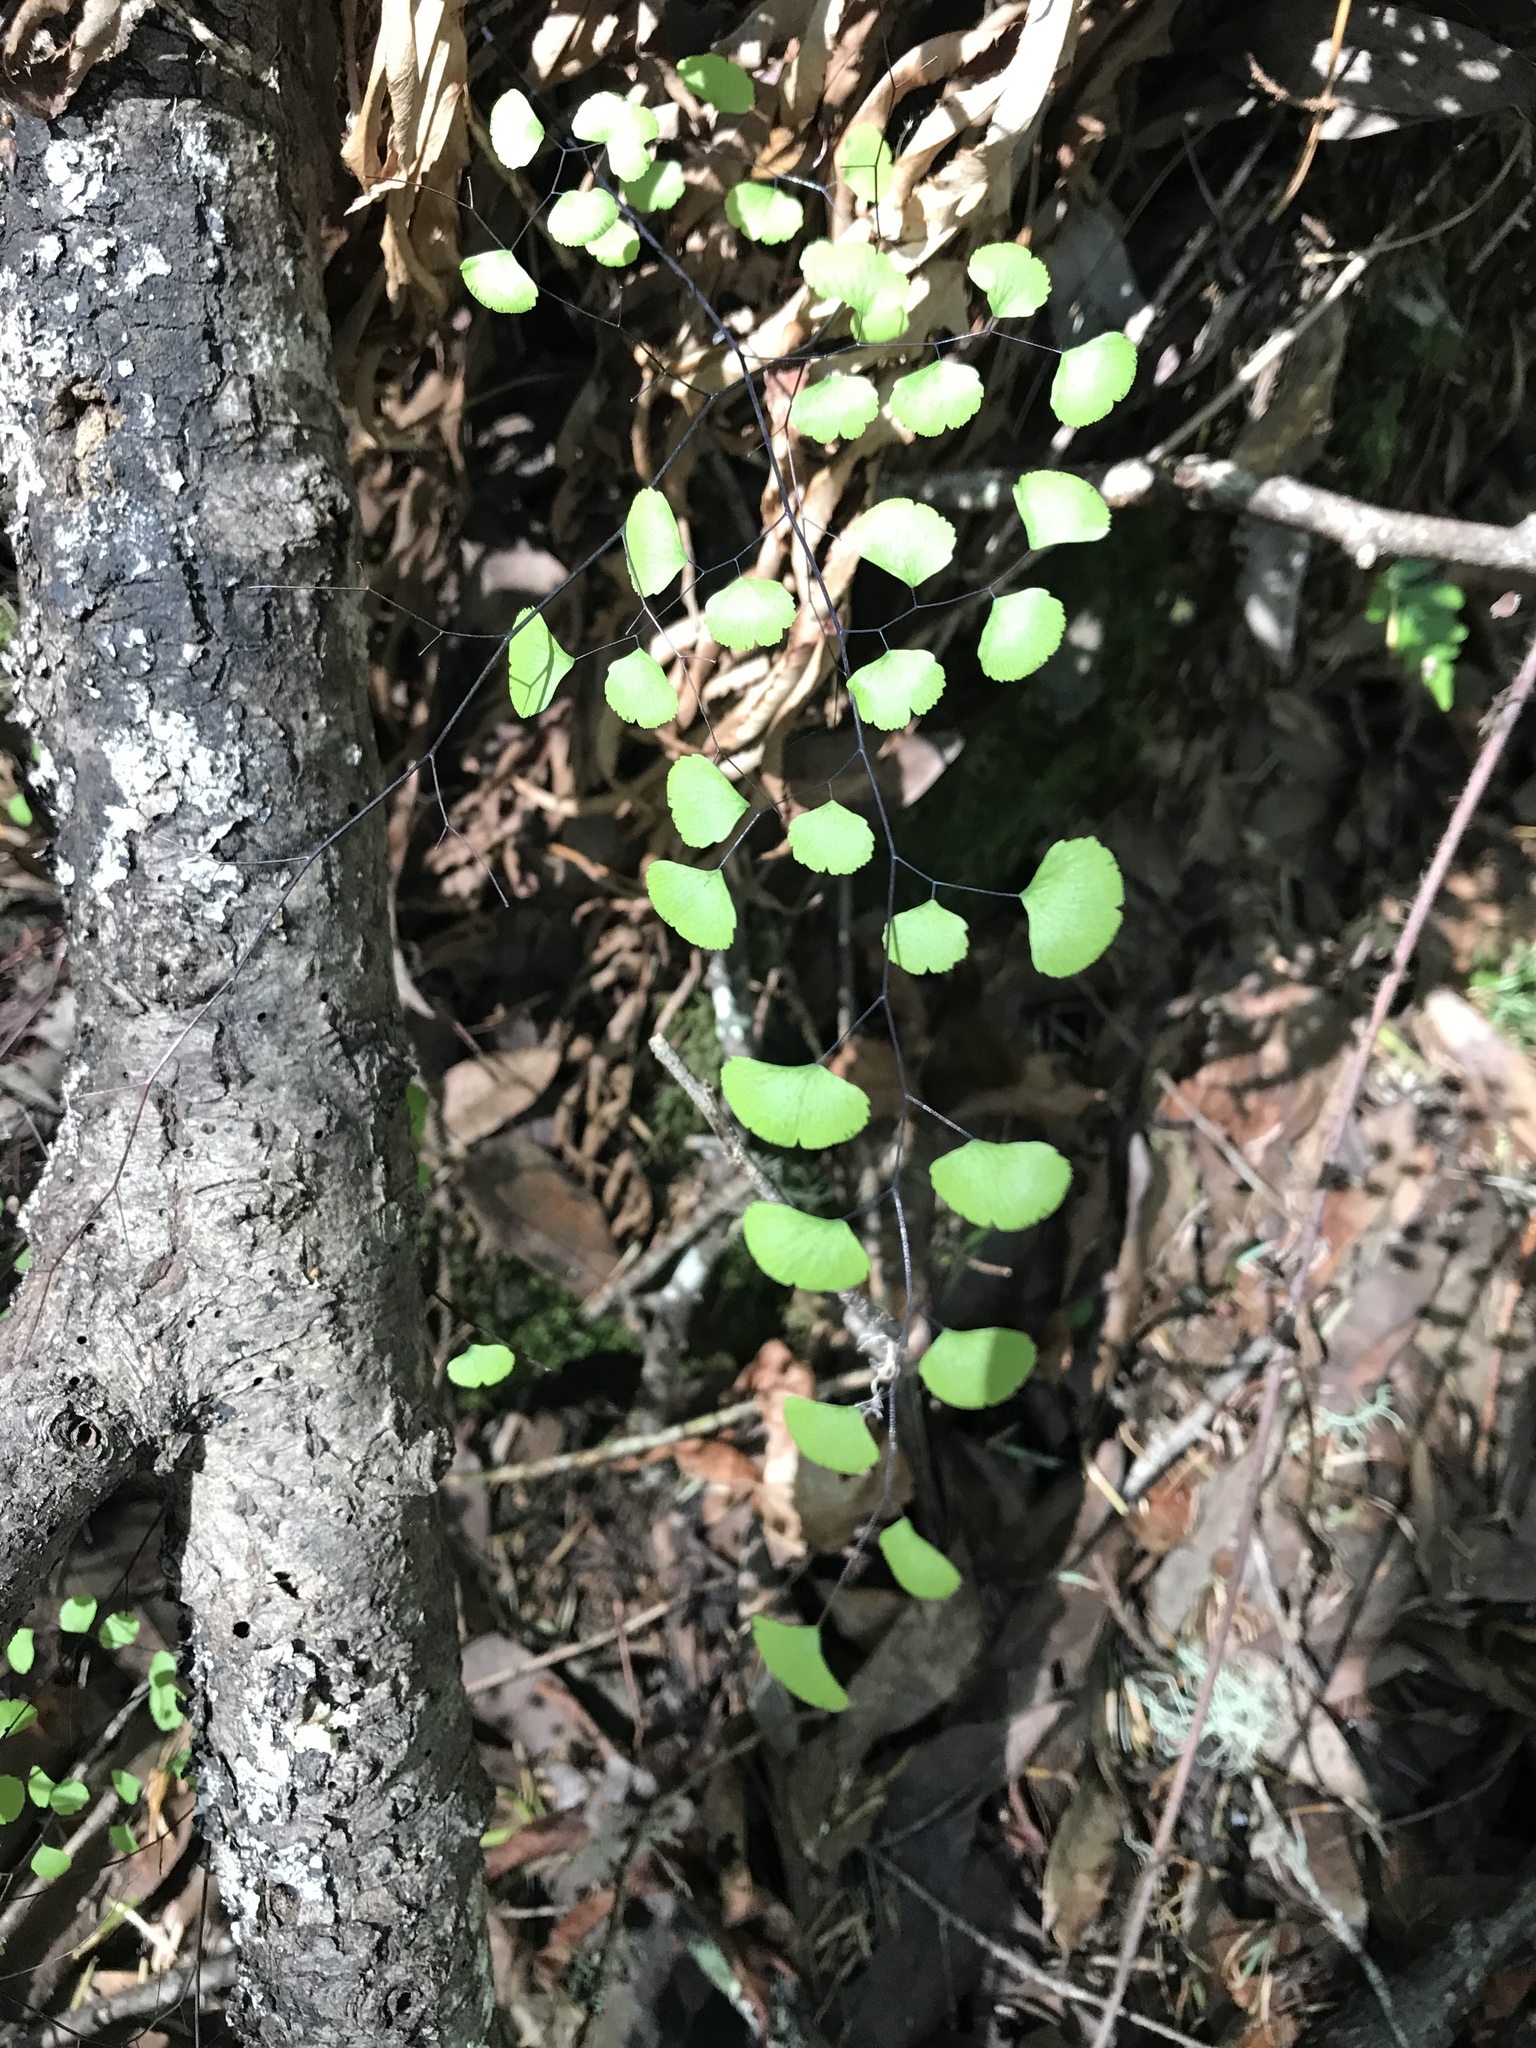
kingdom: Plantae
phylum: Tracheophyta
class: Polypodiopsida
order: Polypodiales
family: Pteridaceae
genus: Adiantum
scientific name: Adiantum jordanii
